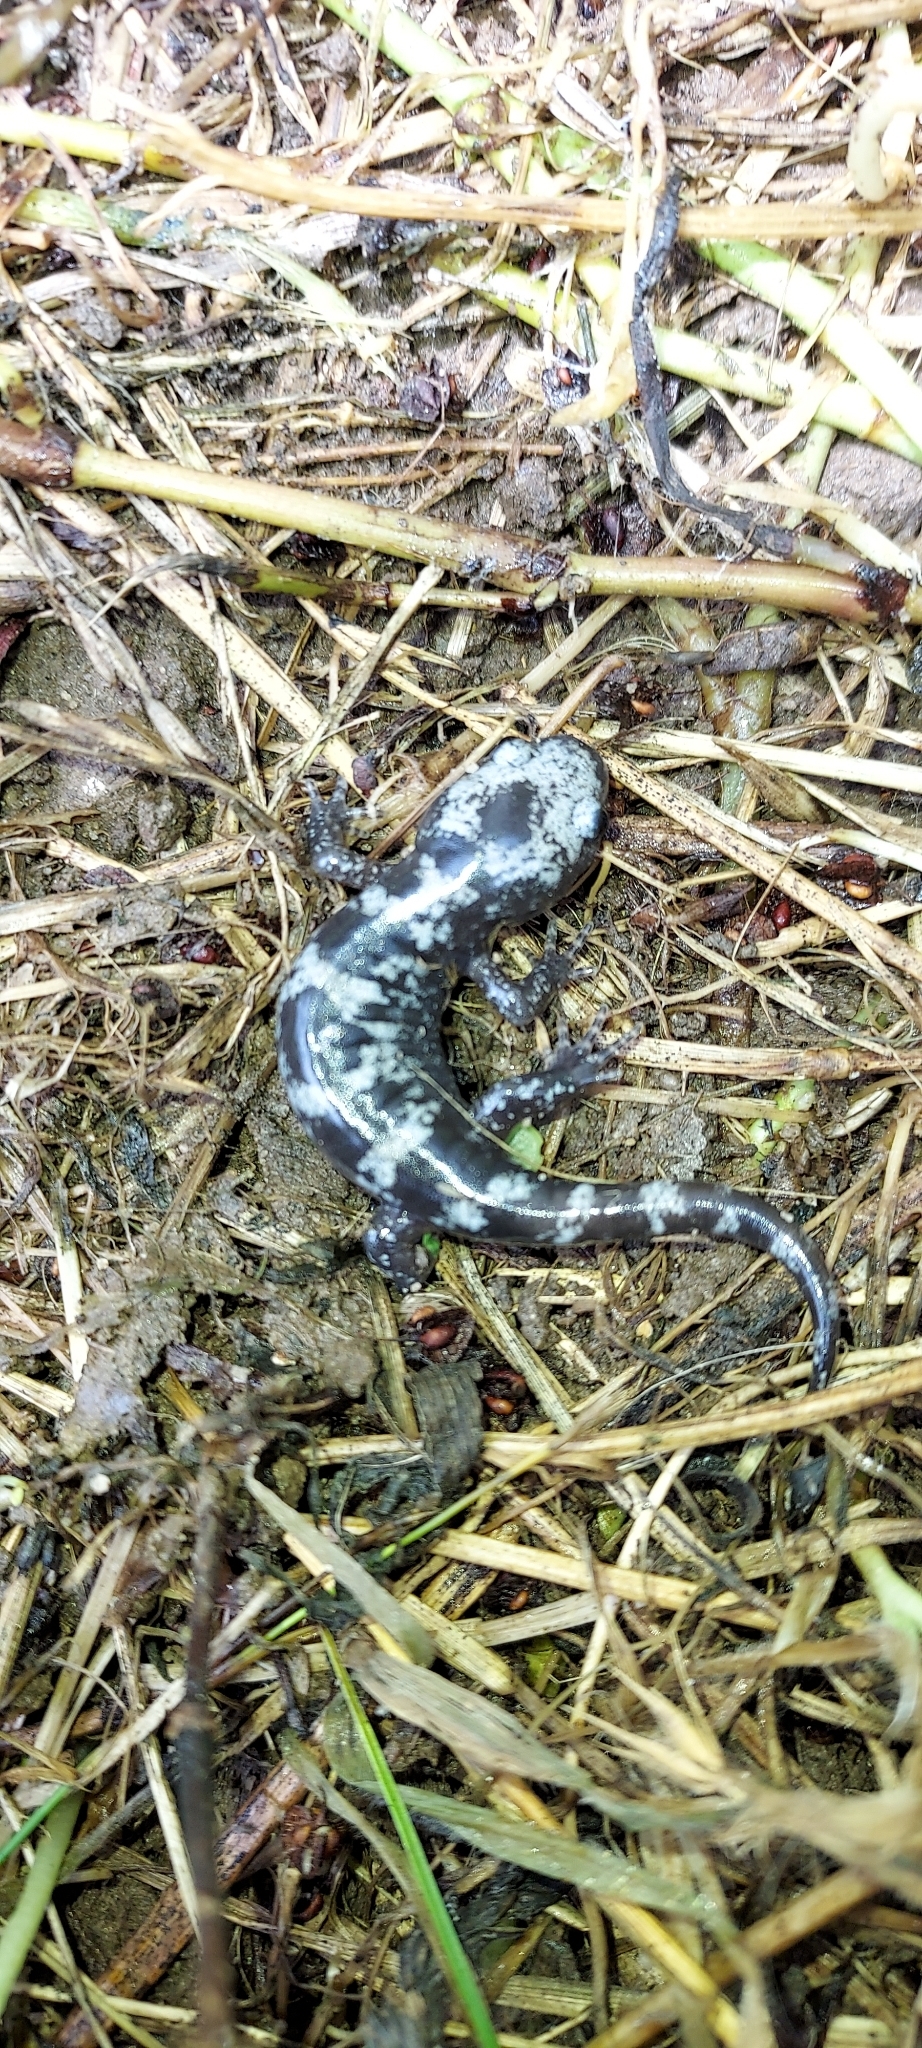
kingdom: Animalia
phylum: Chordata
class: Amphibia
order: Caudata
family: Ambystomatidae
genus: Ambystoma
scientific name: Ambystoma opacum
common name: Marbled salamander
